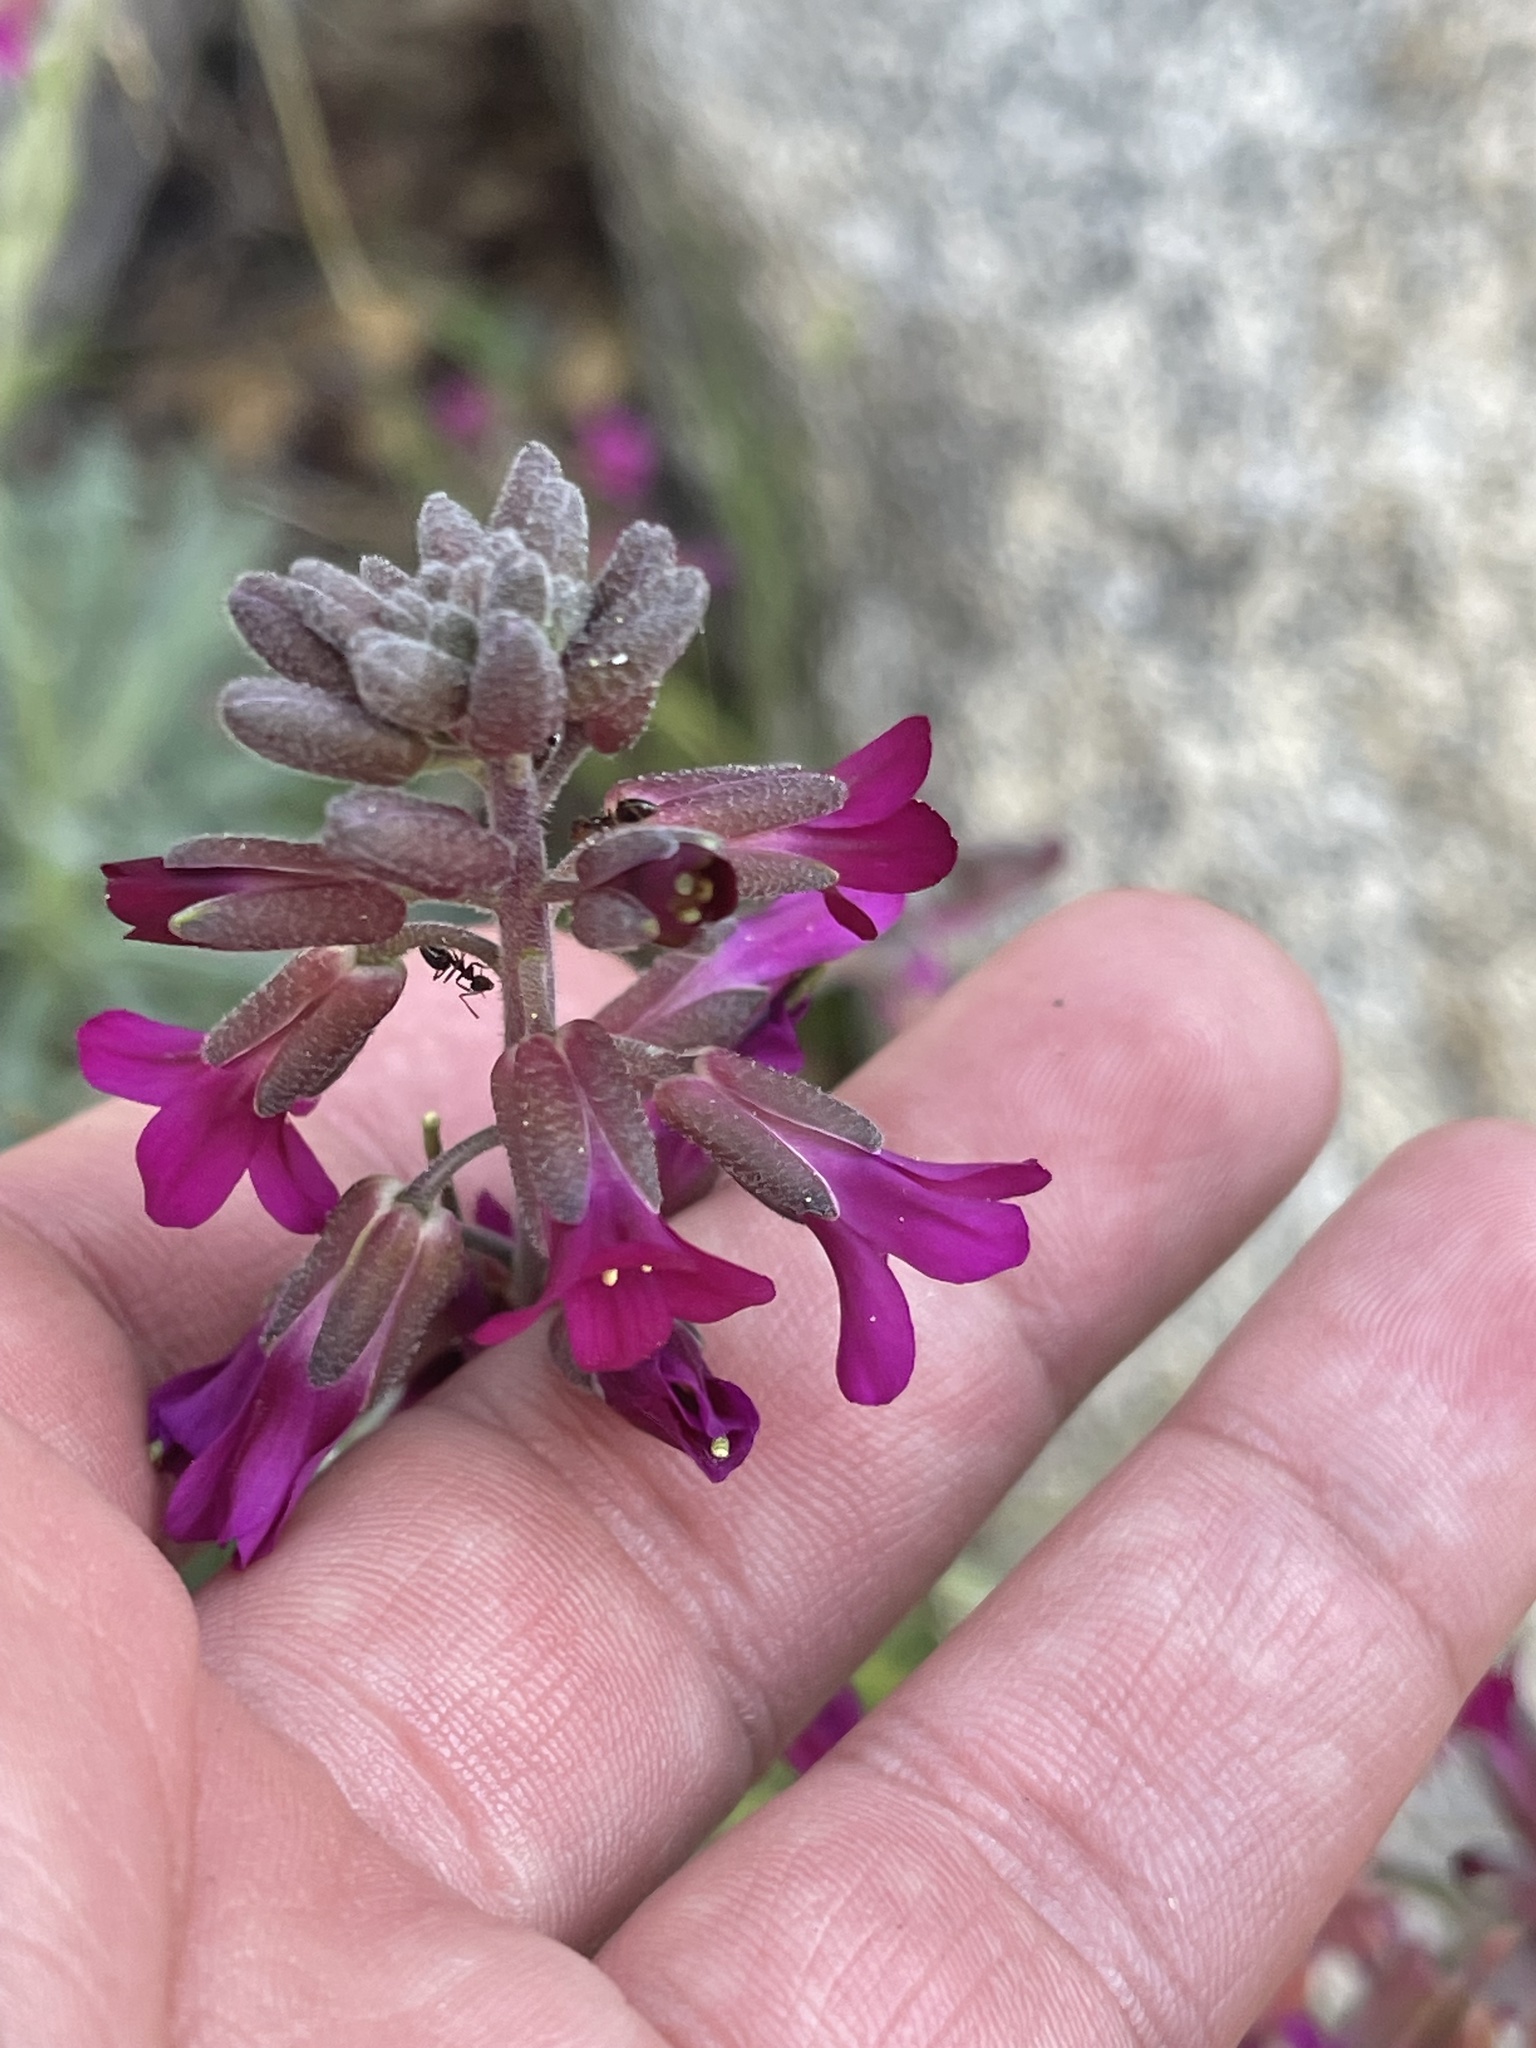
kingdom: Plantae
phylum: Tracheophyta
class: Magnoliopsida
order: Brassicales
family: Brassicaceae
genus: Boechera
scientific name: Boechera arcuata
